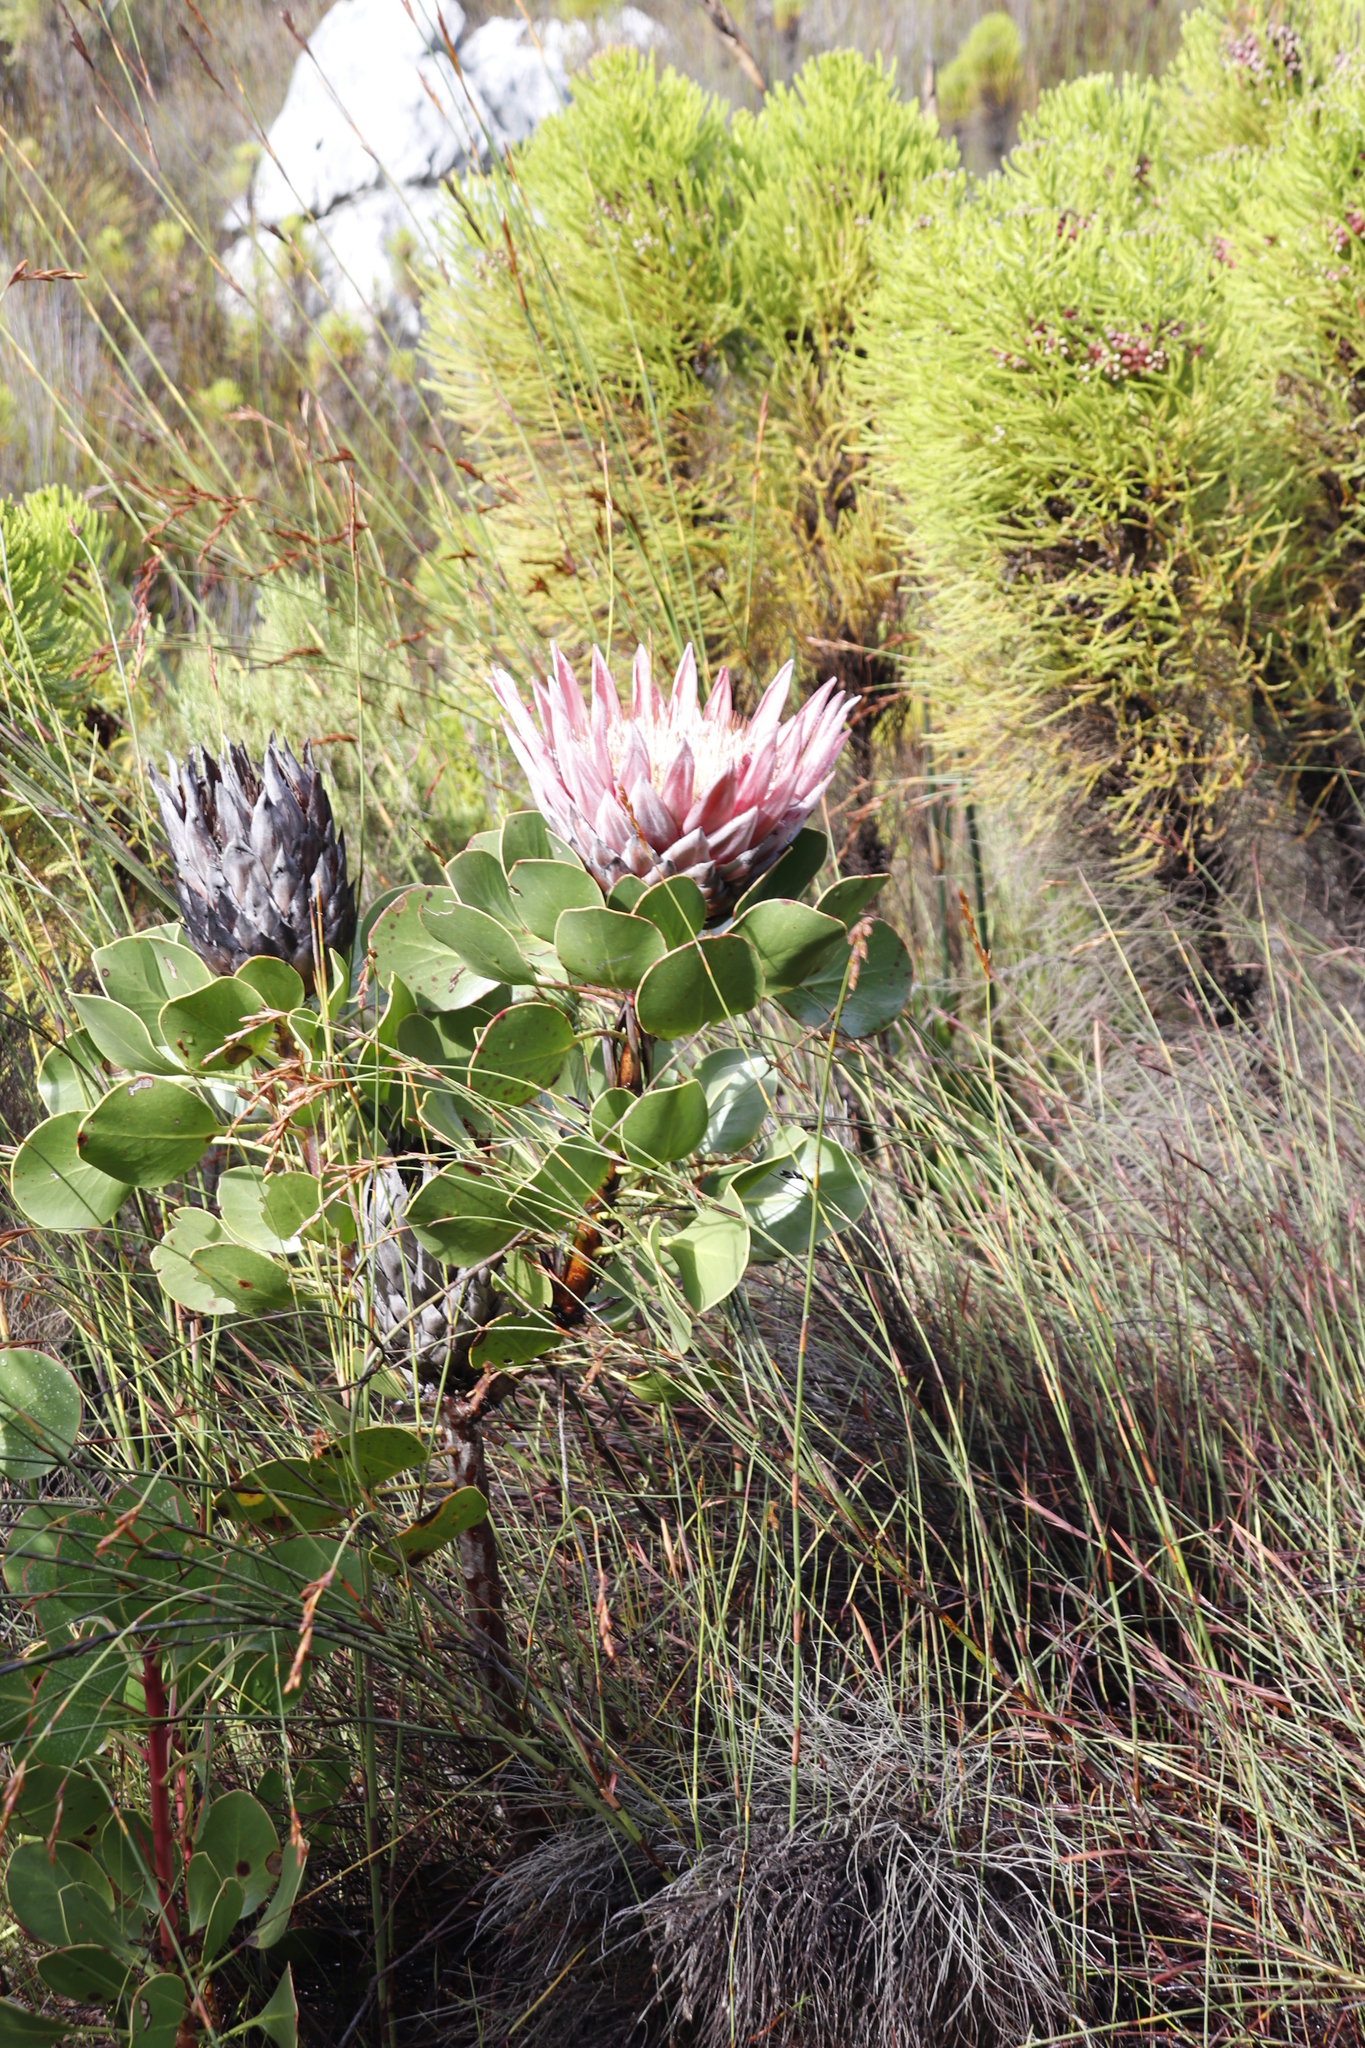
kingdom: Plantae
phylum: Tracheophyta
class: Magnoliopsida
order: Proteales
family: Proteaceae
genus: Protea
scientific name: Protea cynaroides
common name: King protea
